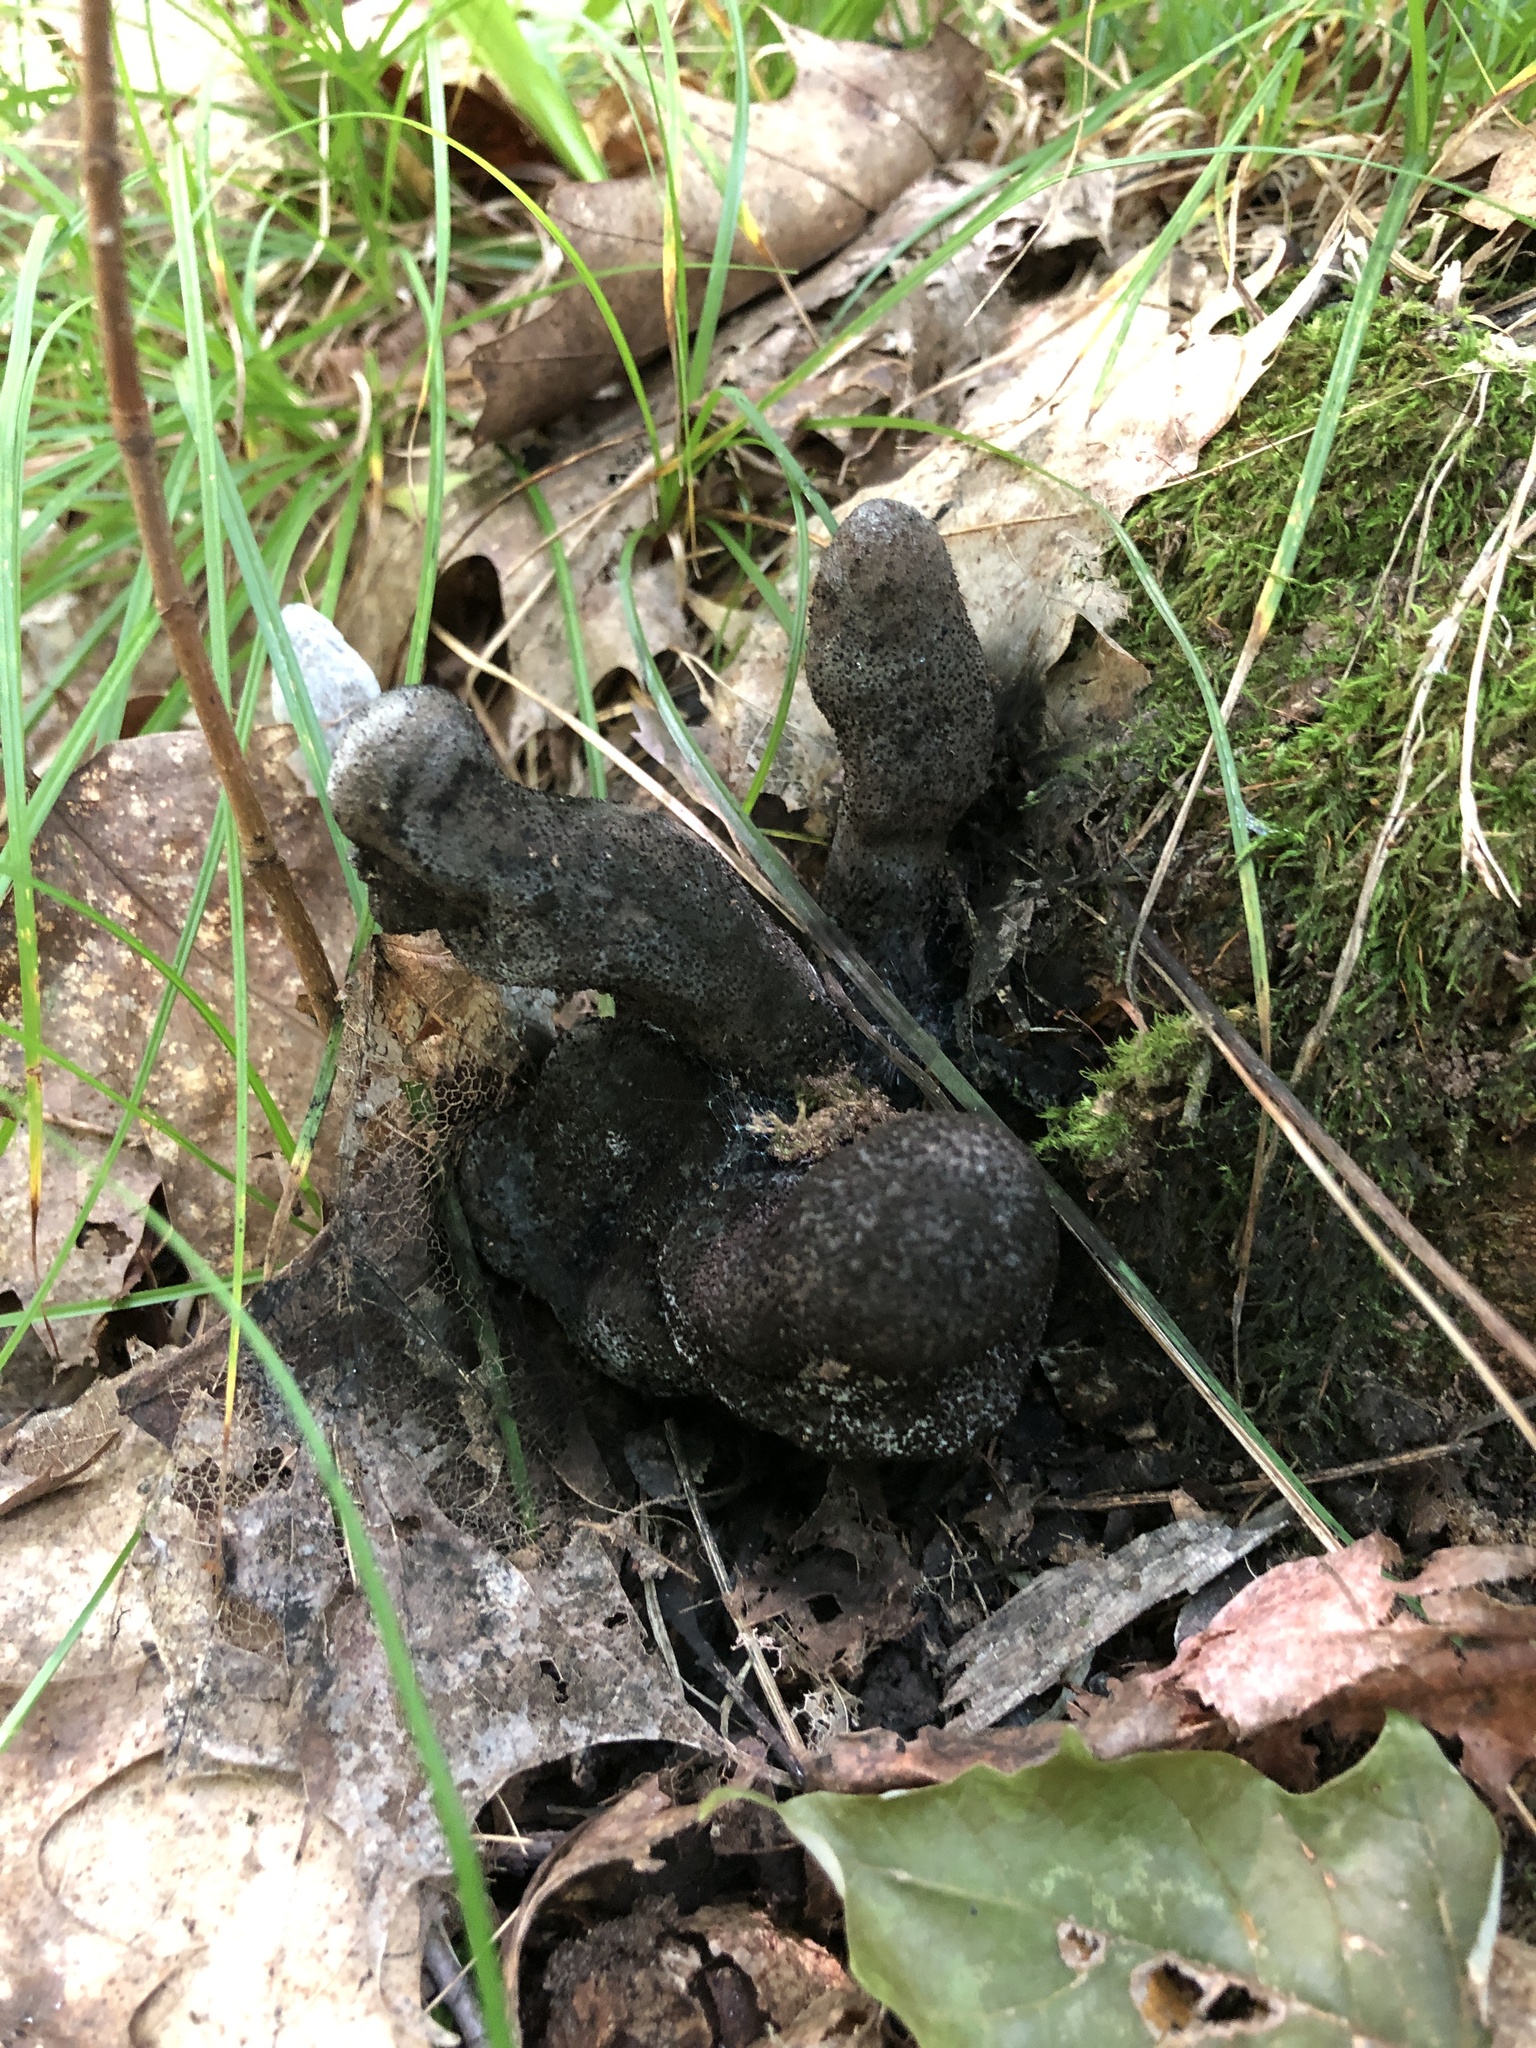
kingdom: Fungi
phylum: Ascomycota
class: Sordariomycetes
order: Xylariales
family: Xylariaceae
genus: Xylaria
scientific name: Xylaria polymorpha
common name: Dead man's fingers
